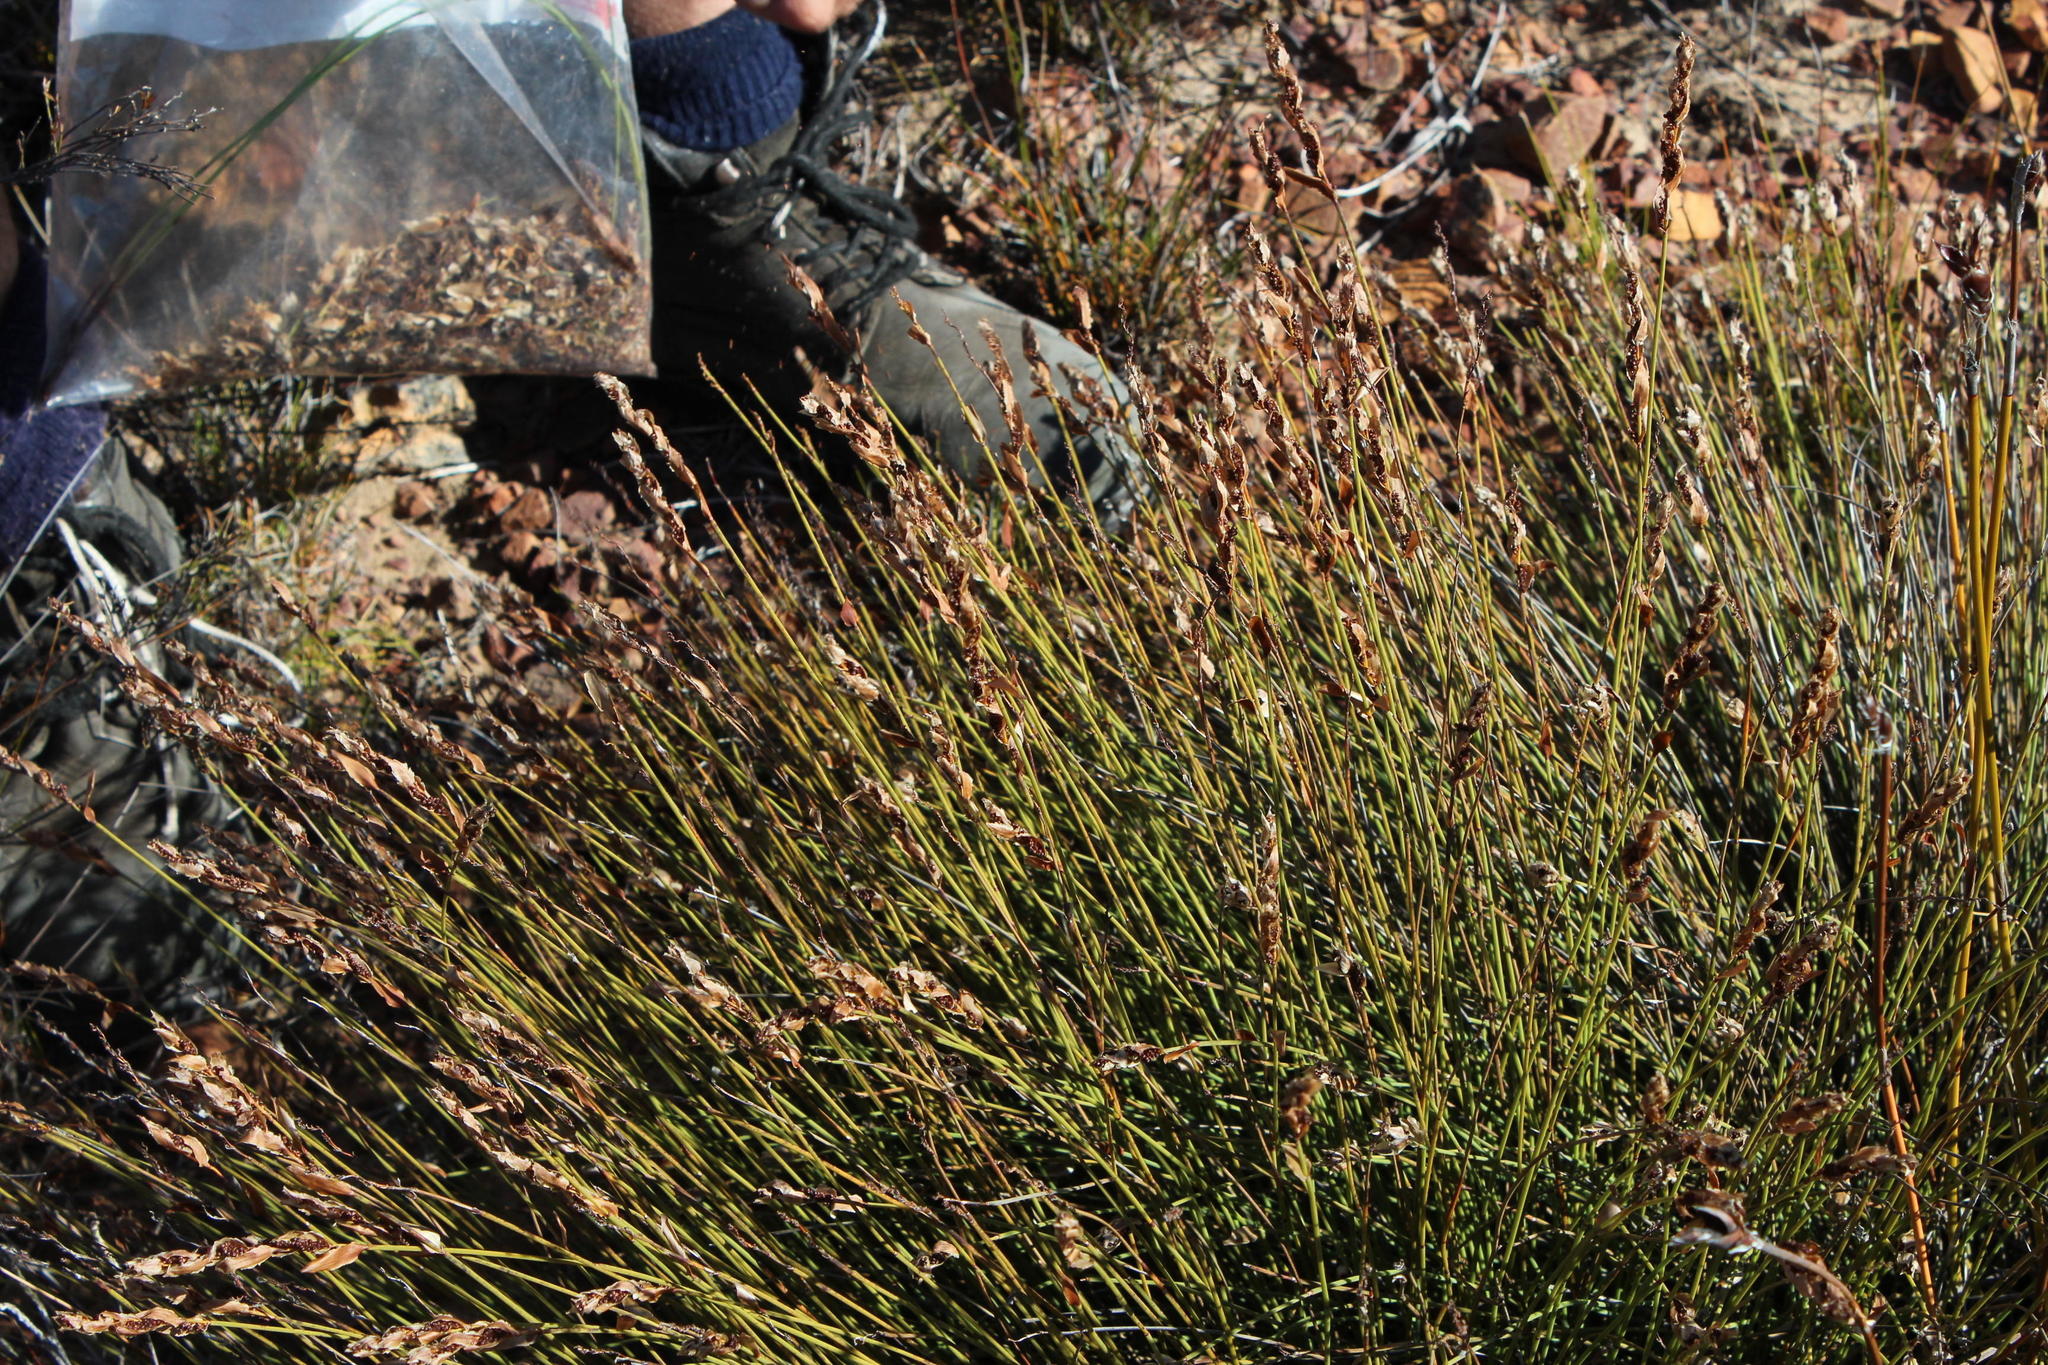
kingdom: Plantae
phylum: Tracheophyta
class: Liliopsida
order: Poales
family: Restionaceae
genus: Elegia
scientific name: Elegia filacea
